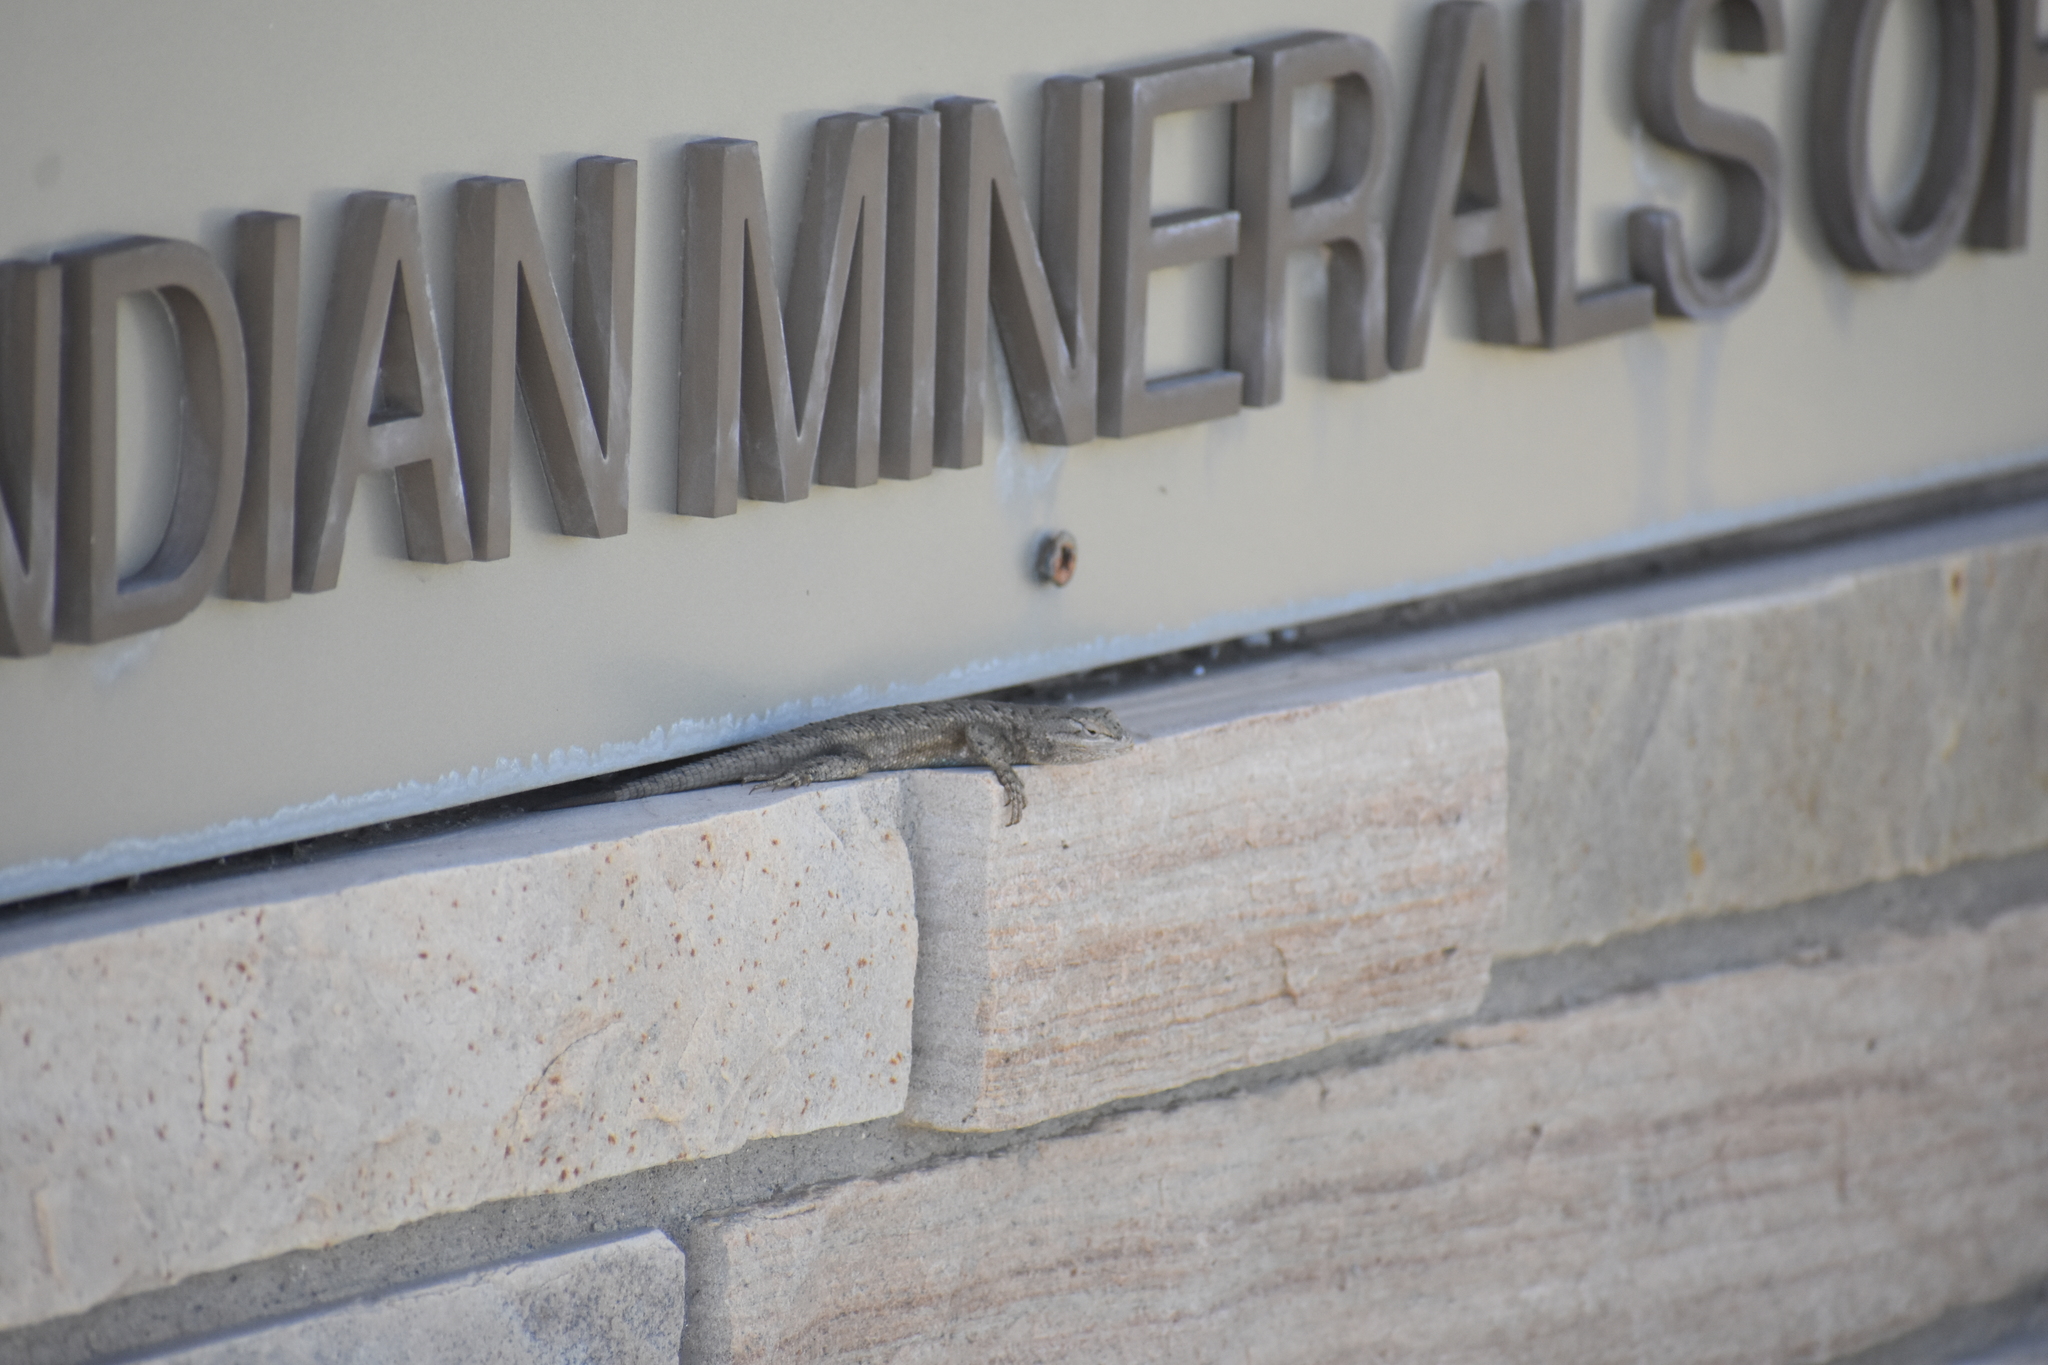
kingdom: Animalia
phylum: Chordata
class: Squamata
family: Phrynosomatidae
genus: Sceloporus
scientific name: Sceloporus tristichus
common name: Plateau fence lizard
